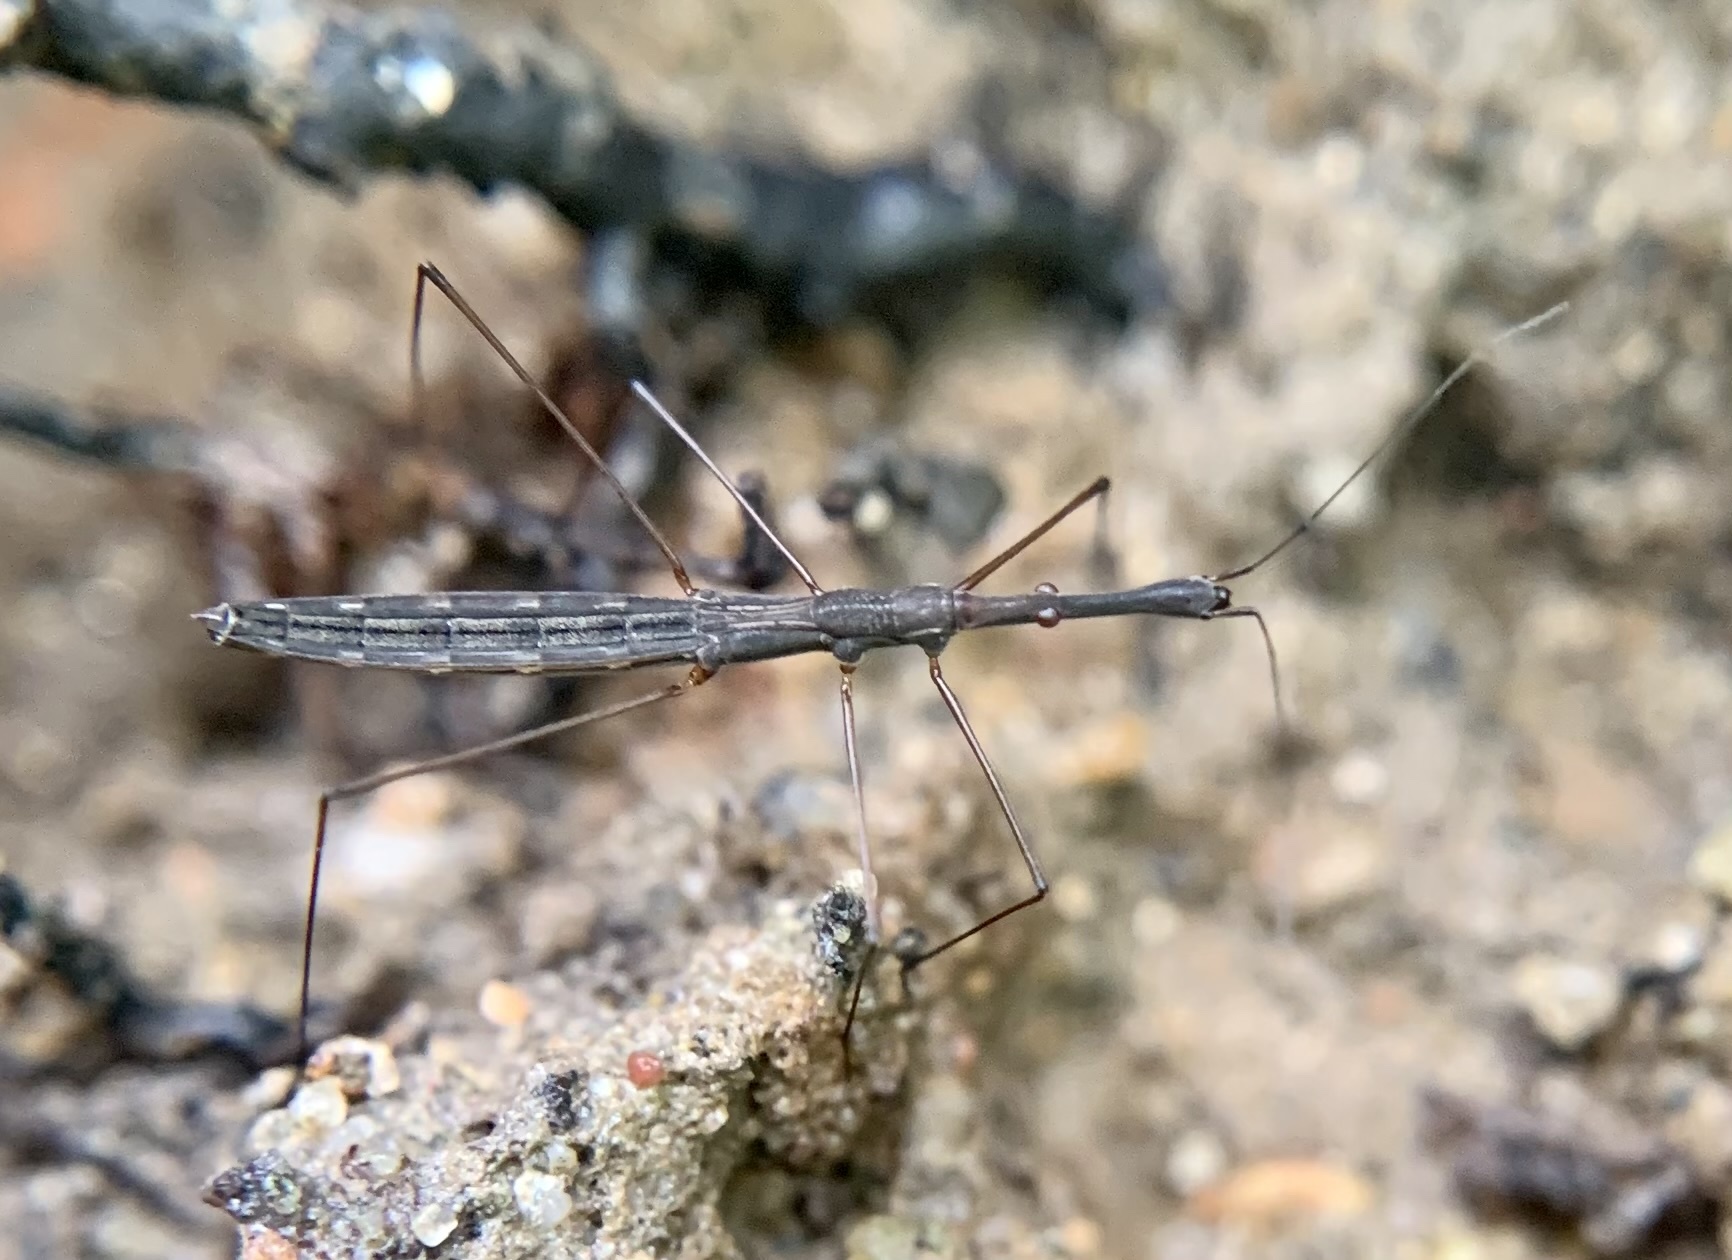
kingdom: Animalia
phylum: Arthropoda
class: Insecta
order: Hemiptera
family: Hydrometridae
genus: Hydrometra
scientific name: Hydrometra stagnorum
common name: Water measurer
